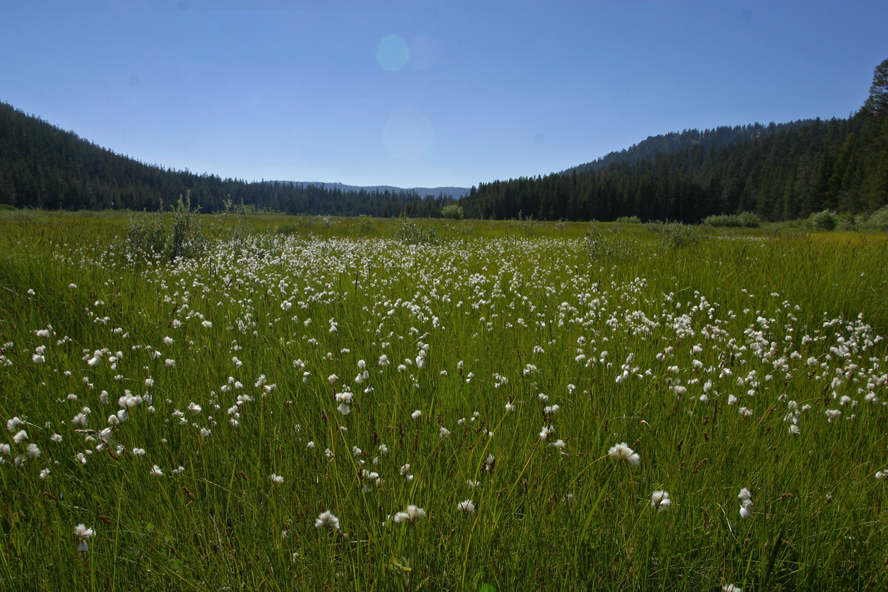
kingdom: Plantae
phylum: Tracheophyta
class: Liliopsida
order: Poales
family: Cyperaceae
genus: Eriophorum
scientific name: Eriophorum gracile
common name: Slender cottongrass
